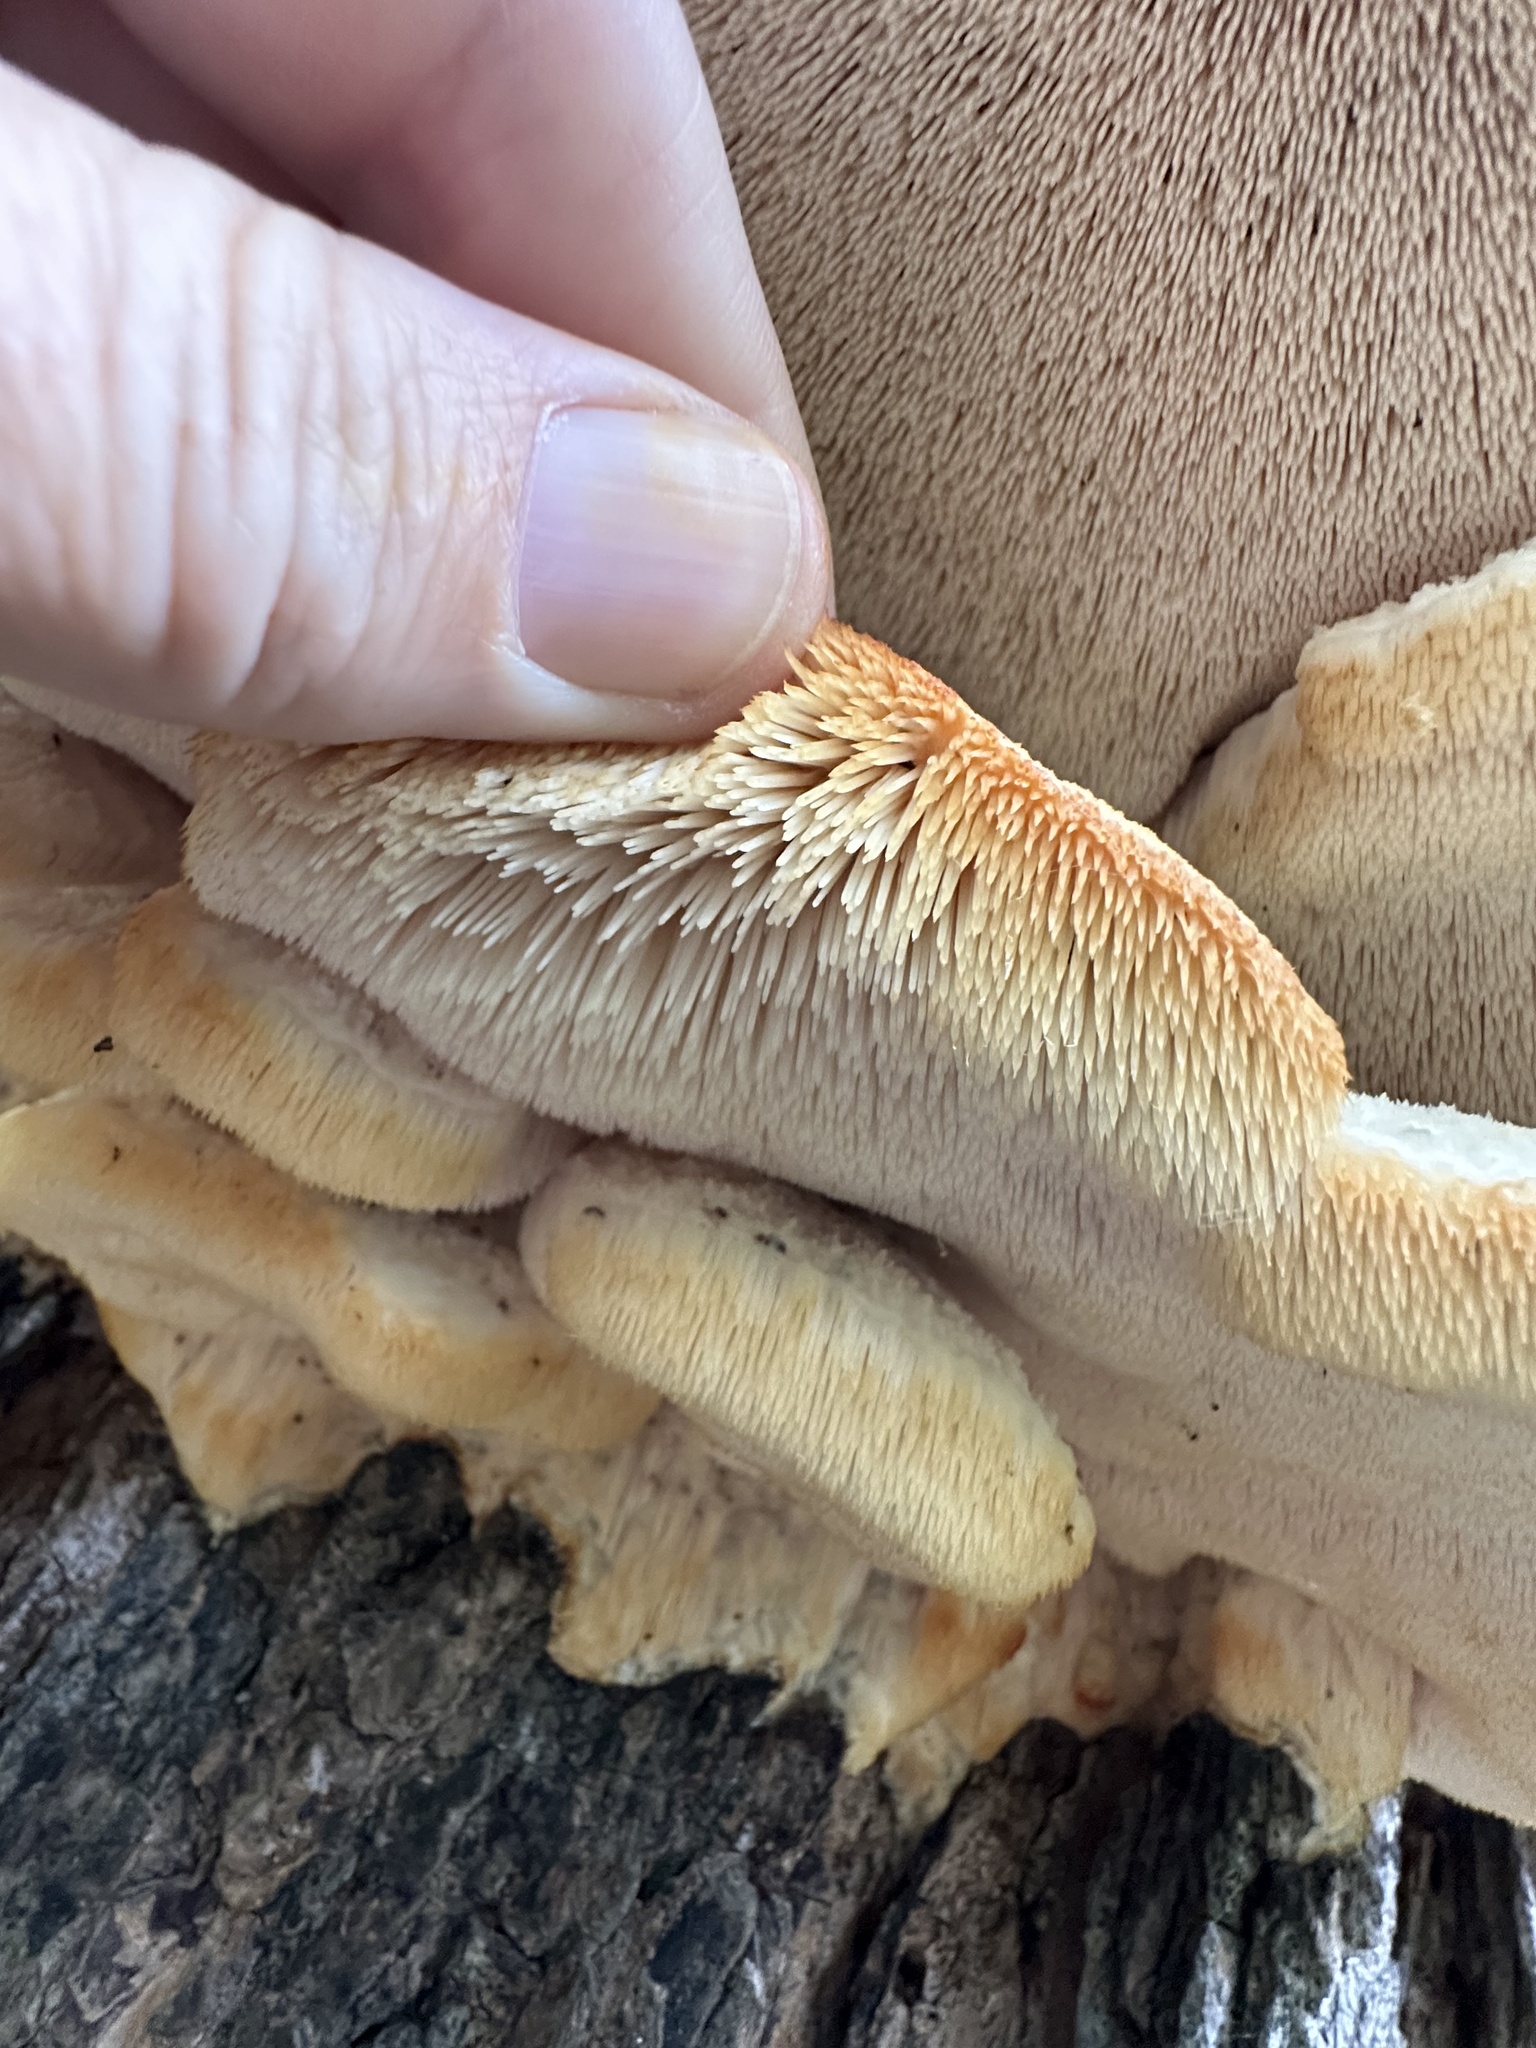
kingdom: Fungi
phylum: Basidiomycota
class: Agaricomycetes
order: Polyporales
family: Meruliaceae
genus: Climacodon
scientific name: Climacodon septentrionalis
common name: Northern tooth
